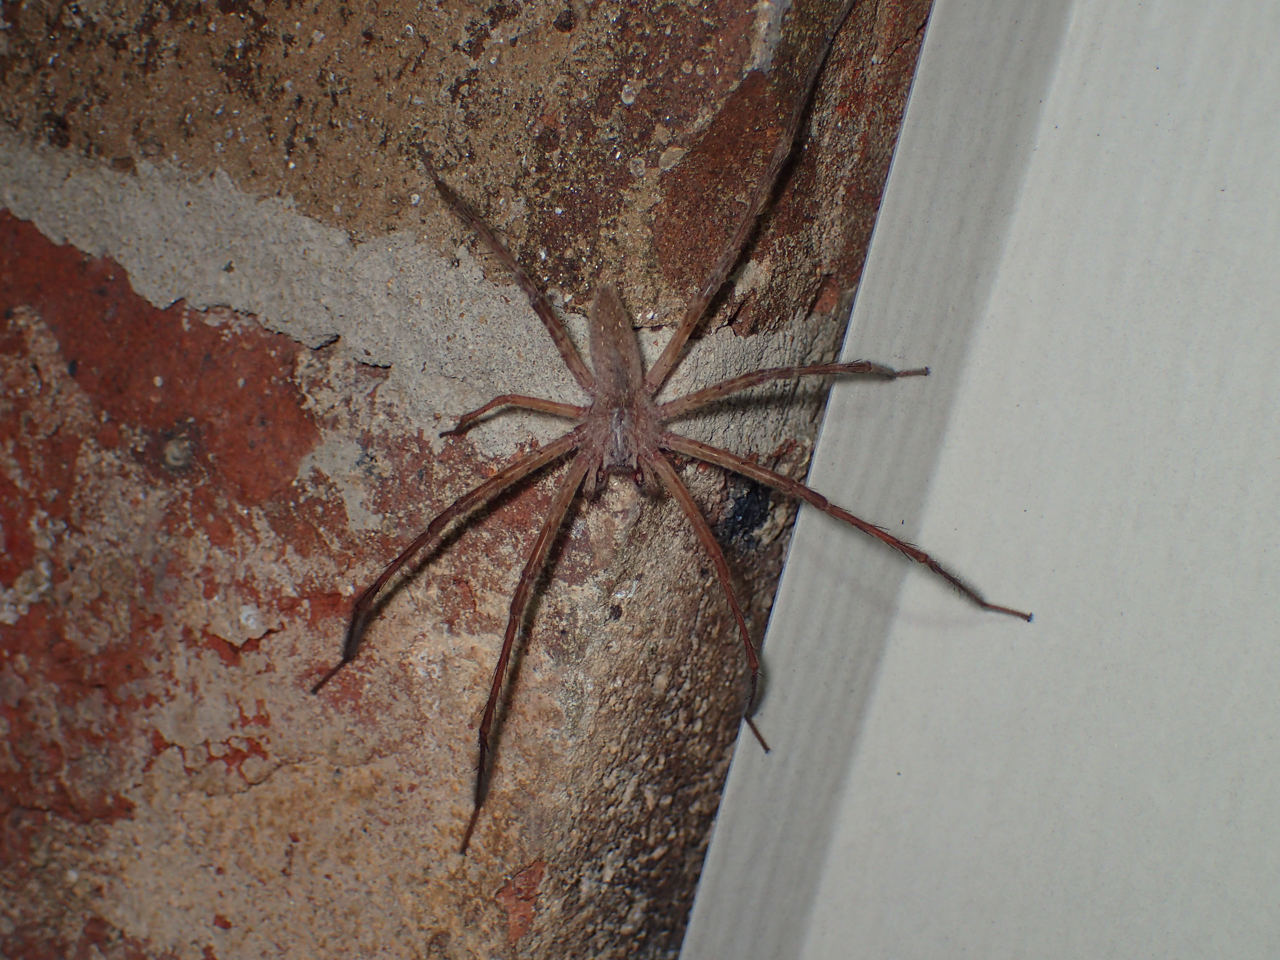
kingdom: Animalia
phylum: Arthropoda
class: Arachnida
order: Araneae
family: Pisauridae
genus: Pisaurina
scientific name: Pisaurina mira
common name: American nursery web spider
